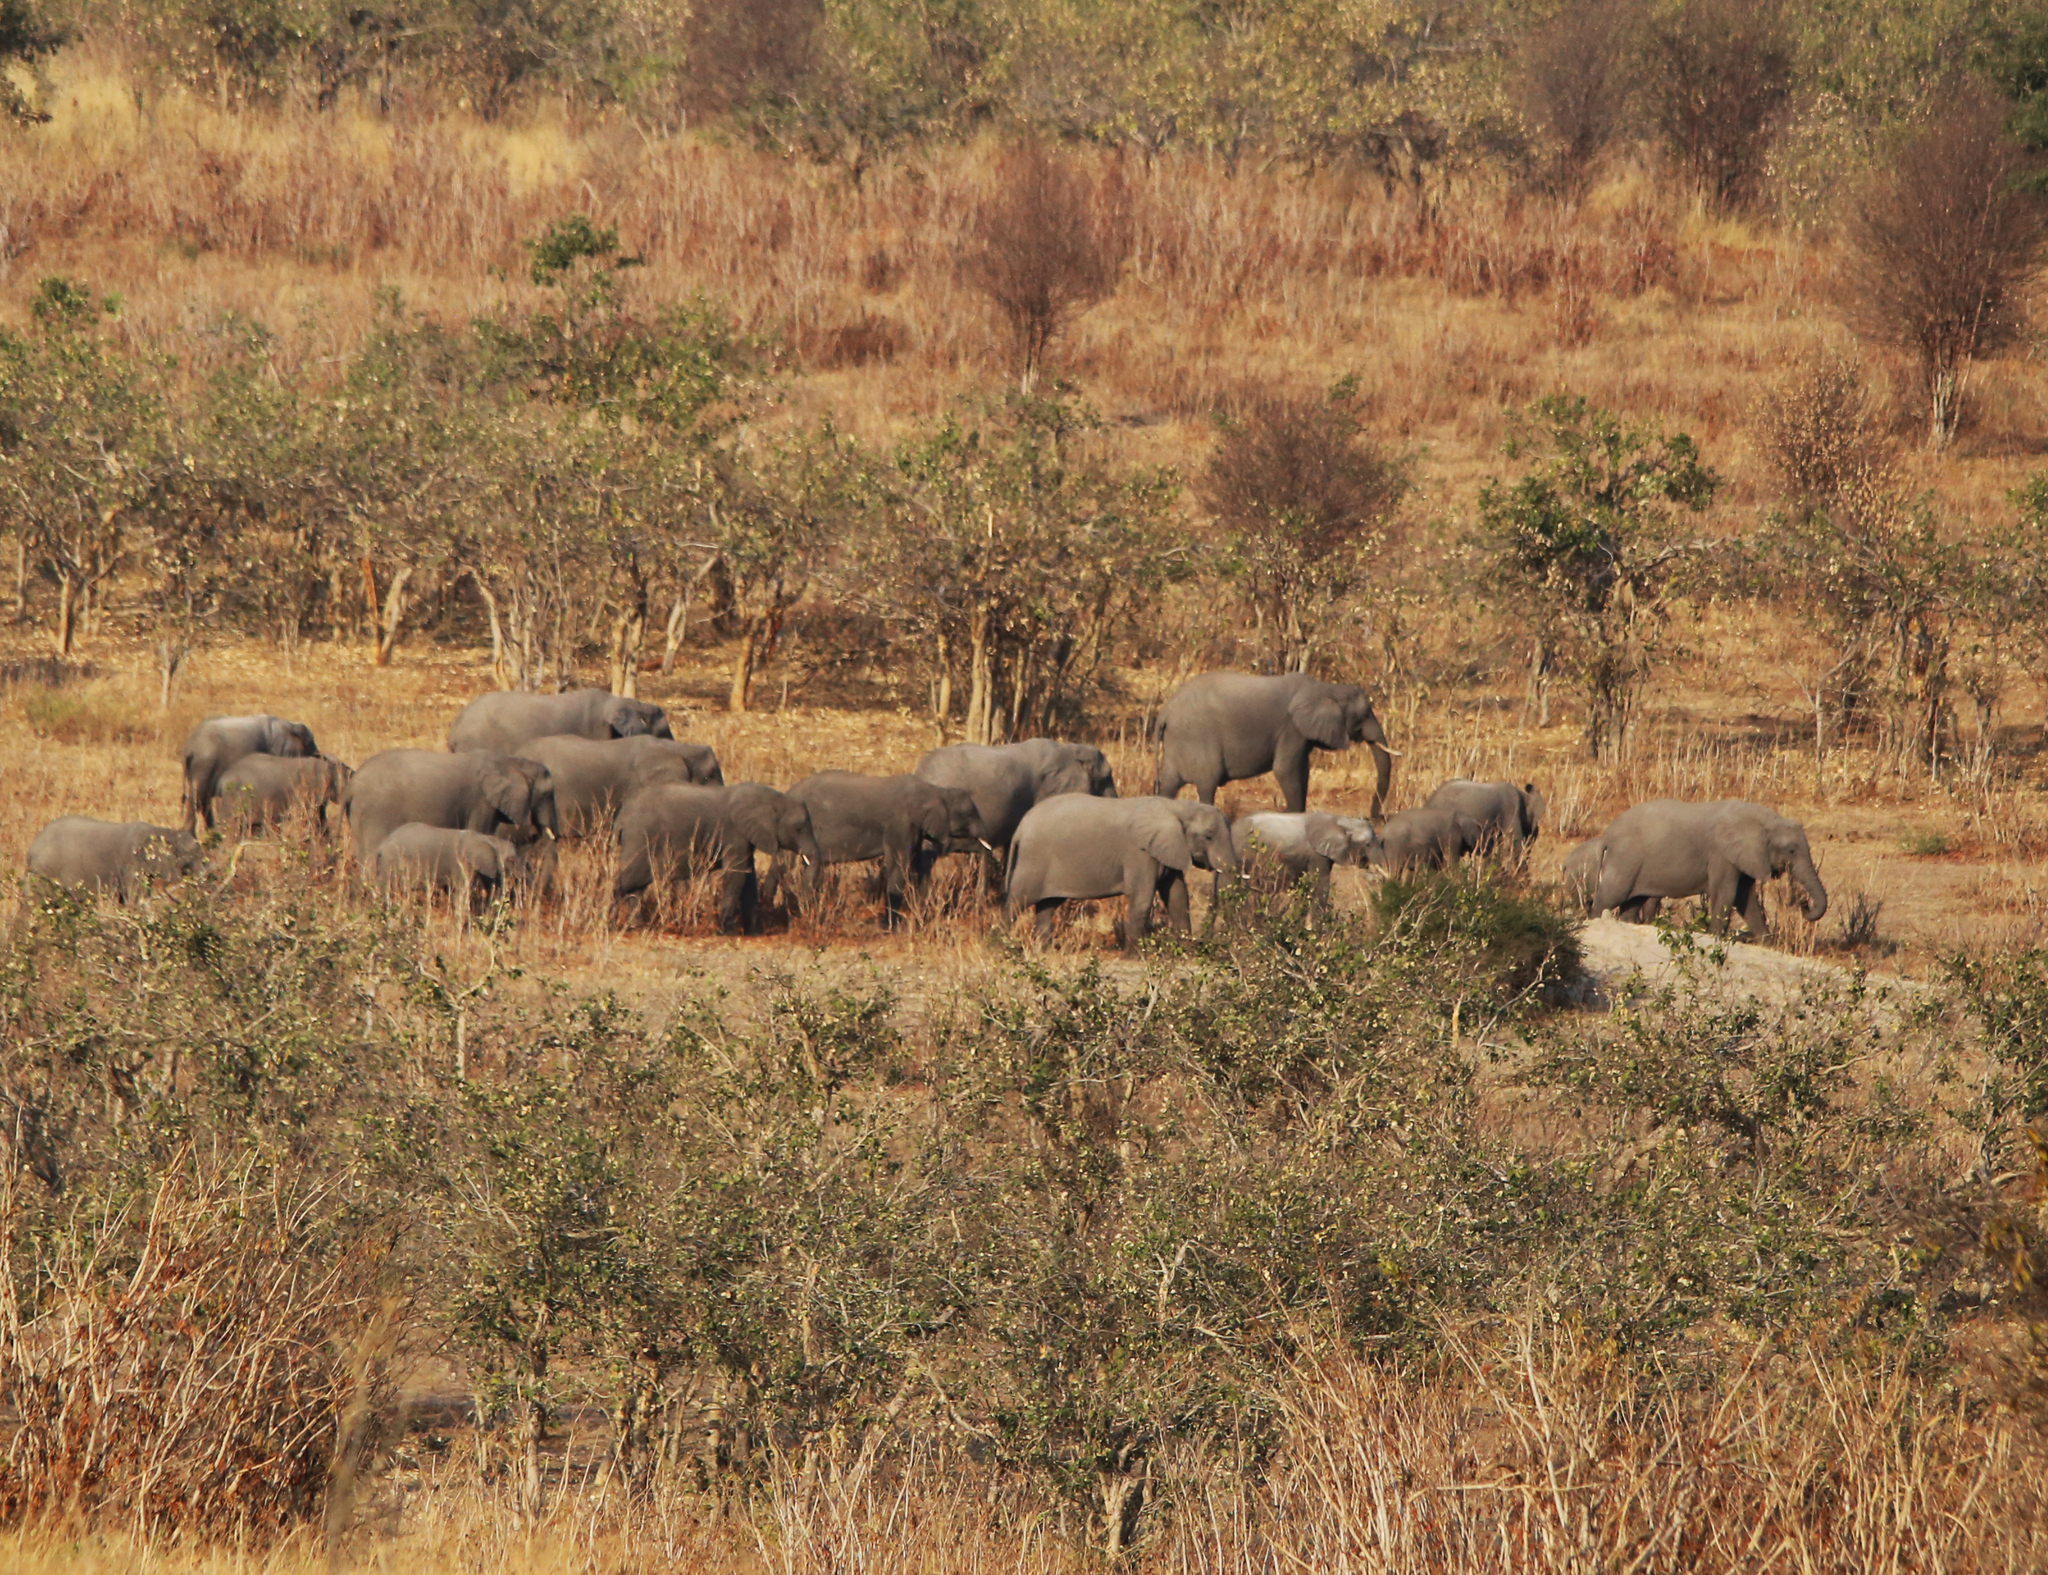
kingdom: Animalia
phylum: Chordata
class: Mammalia
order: Proboscidea
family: Elephantidae
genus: Loxodonta
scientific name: Loxodonta africana
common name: African elephant
